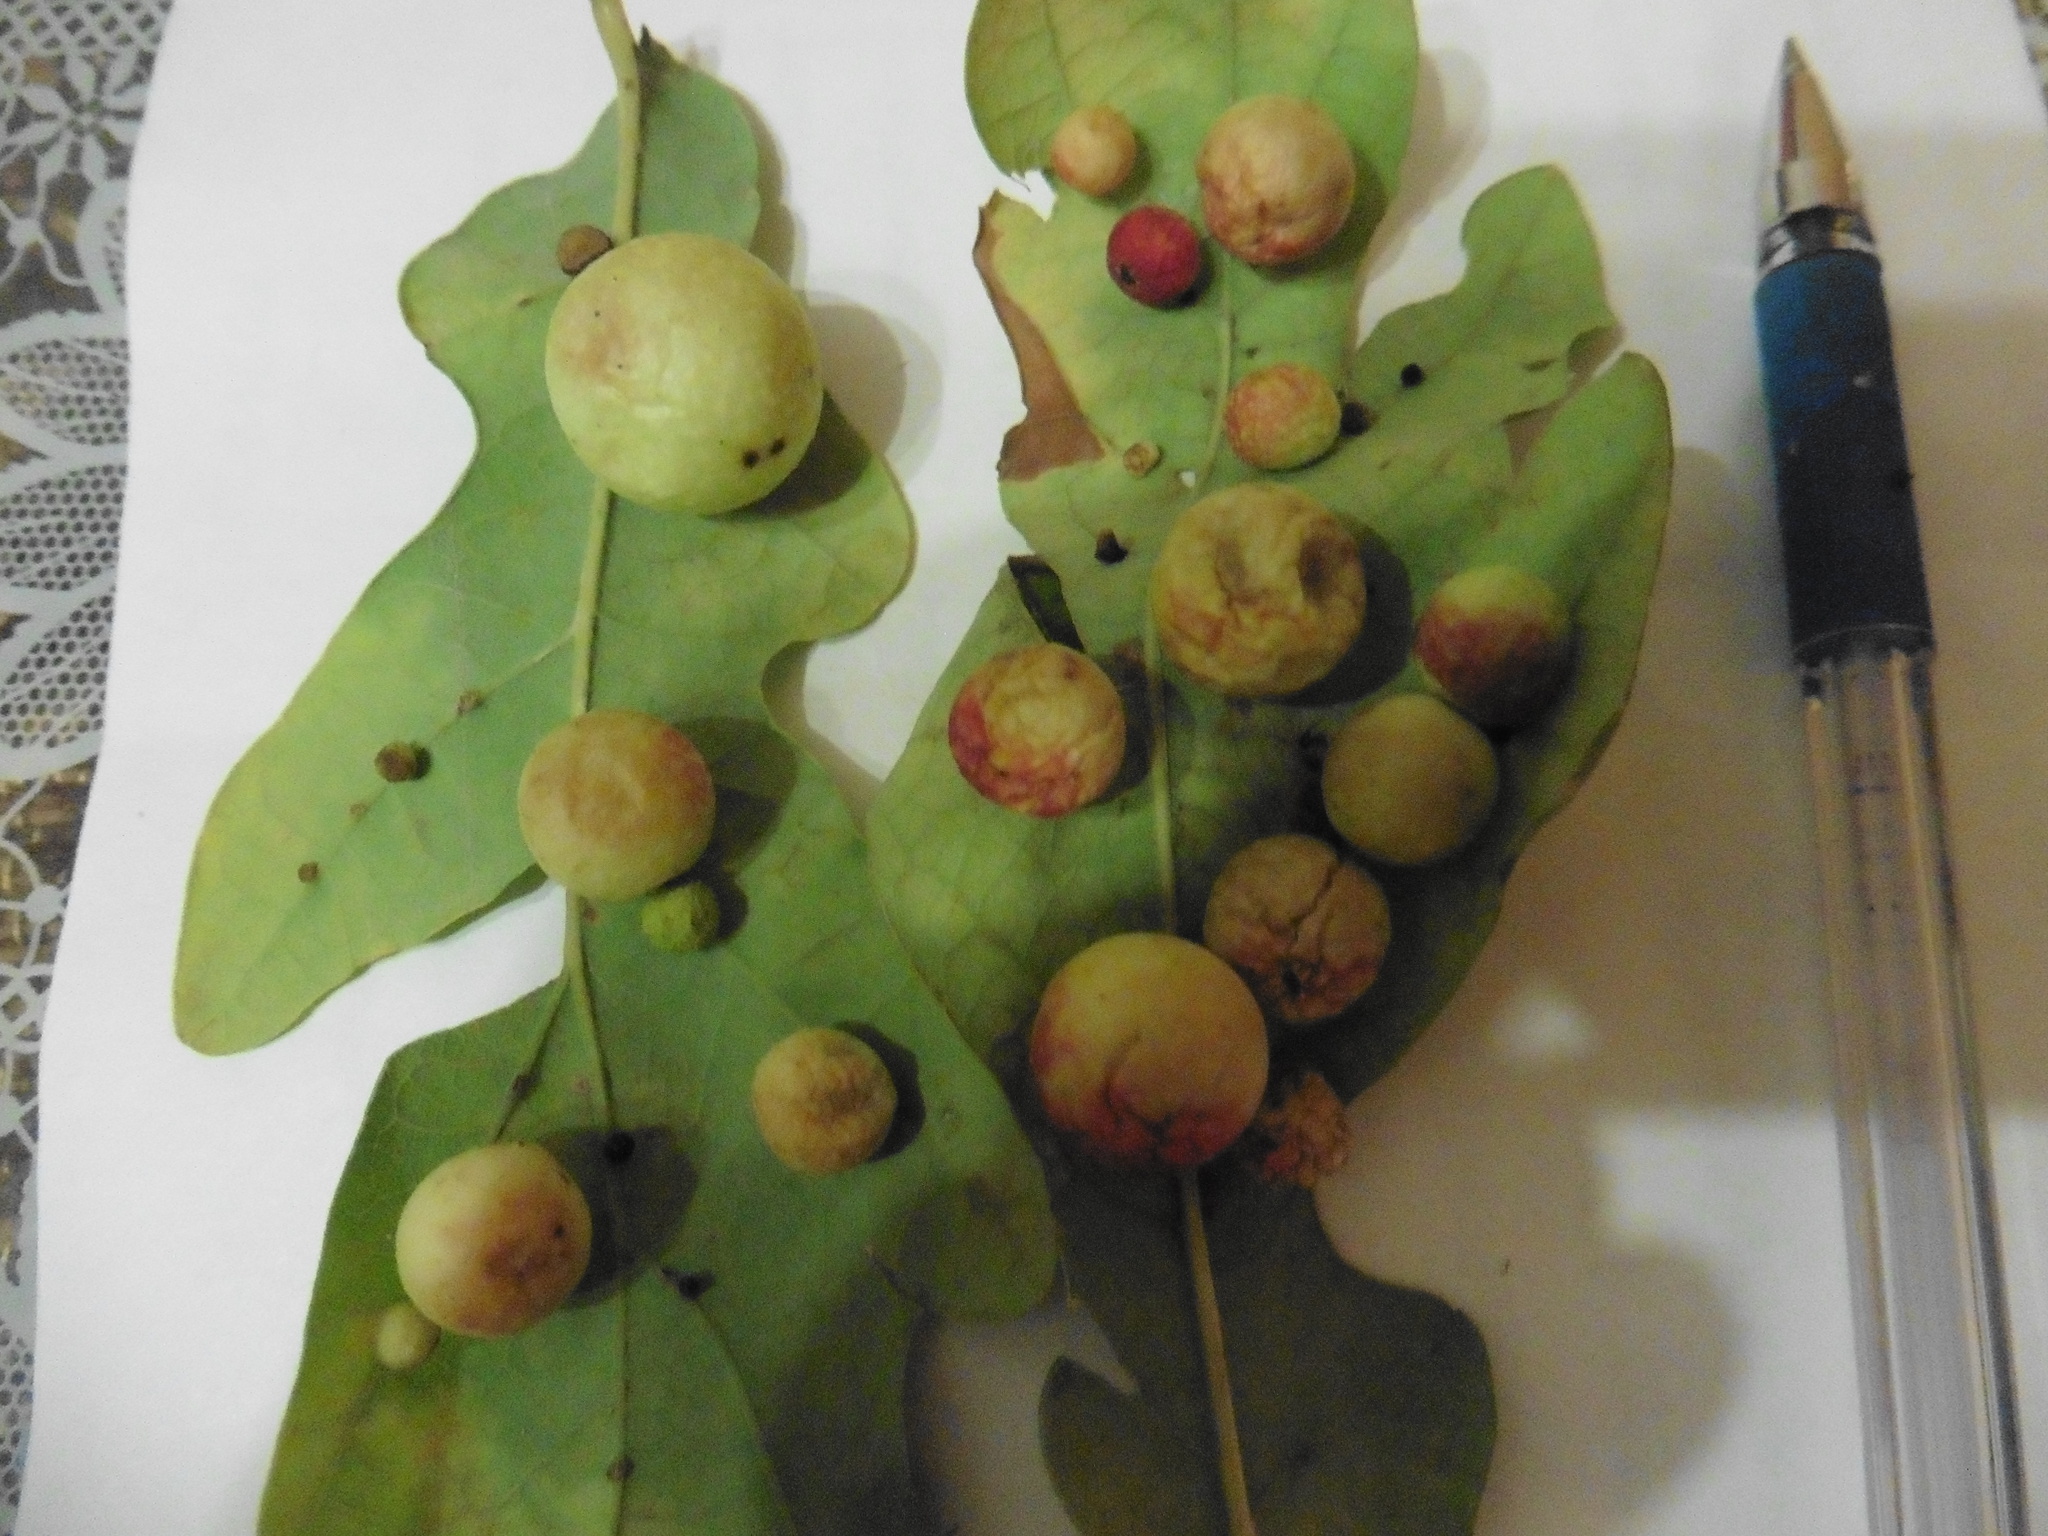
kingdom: Animalia
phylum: Arthropoda
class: Insecta
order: Hymenoptera
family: Cynipidae
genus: Cynips
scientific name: Cynips quercusfolii
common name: Cherry gall
